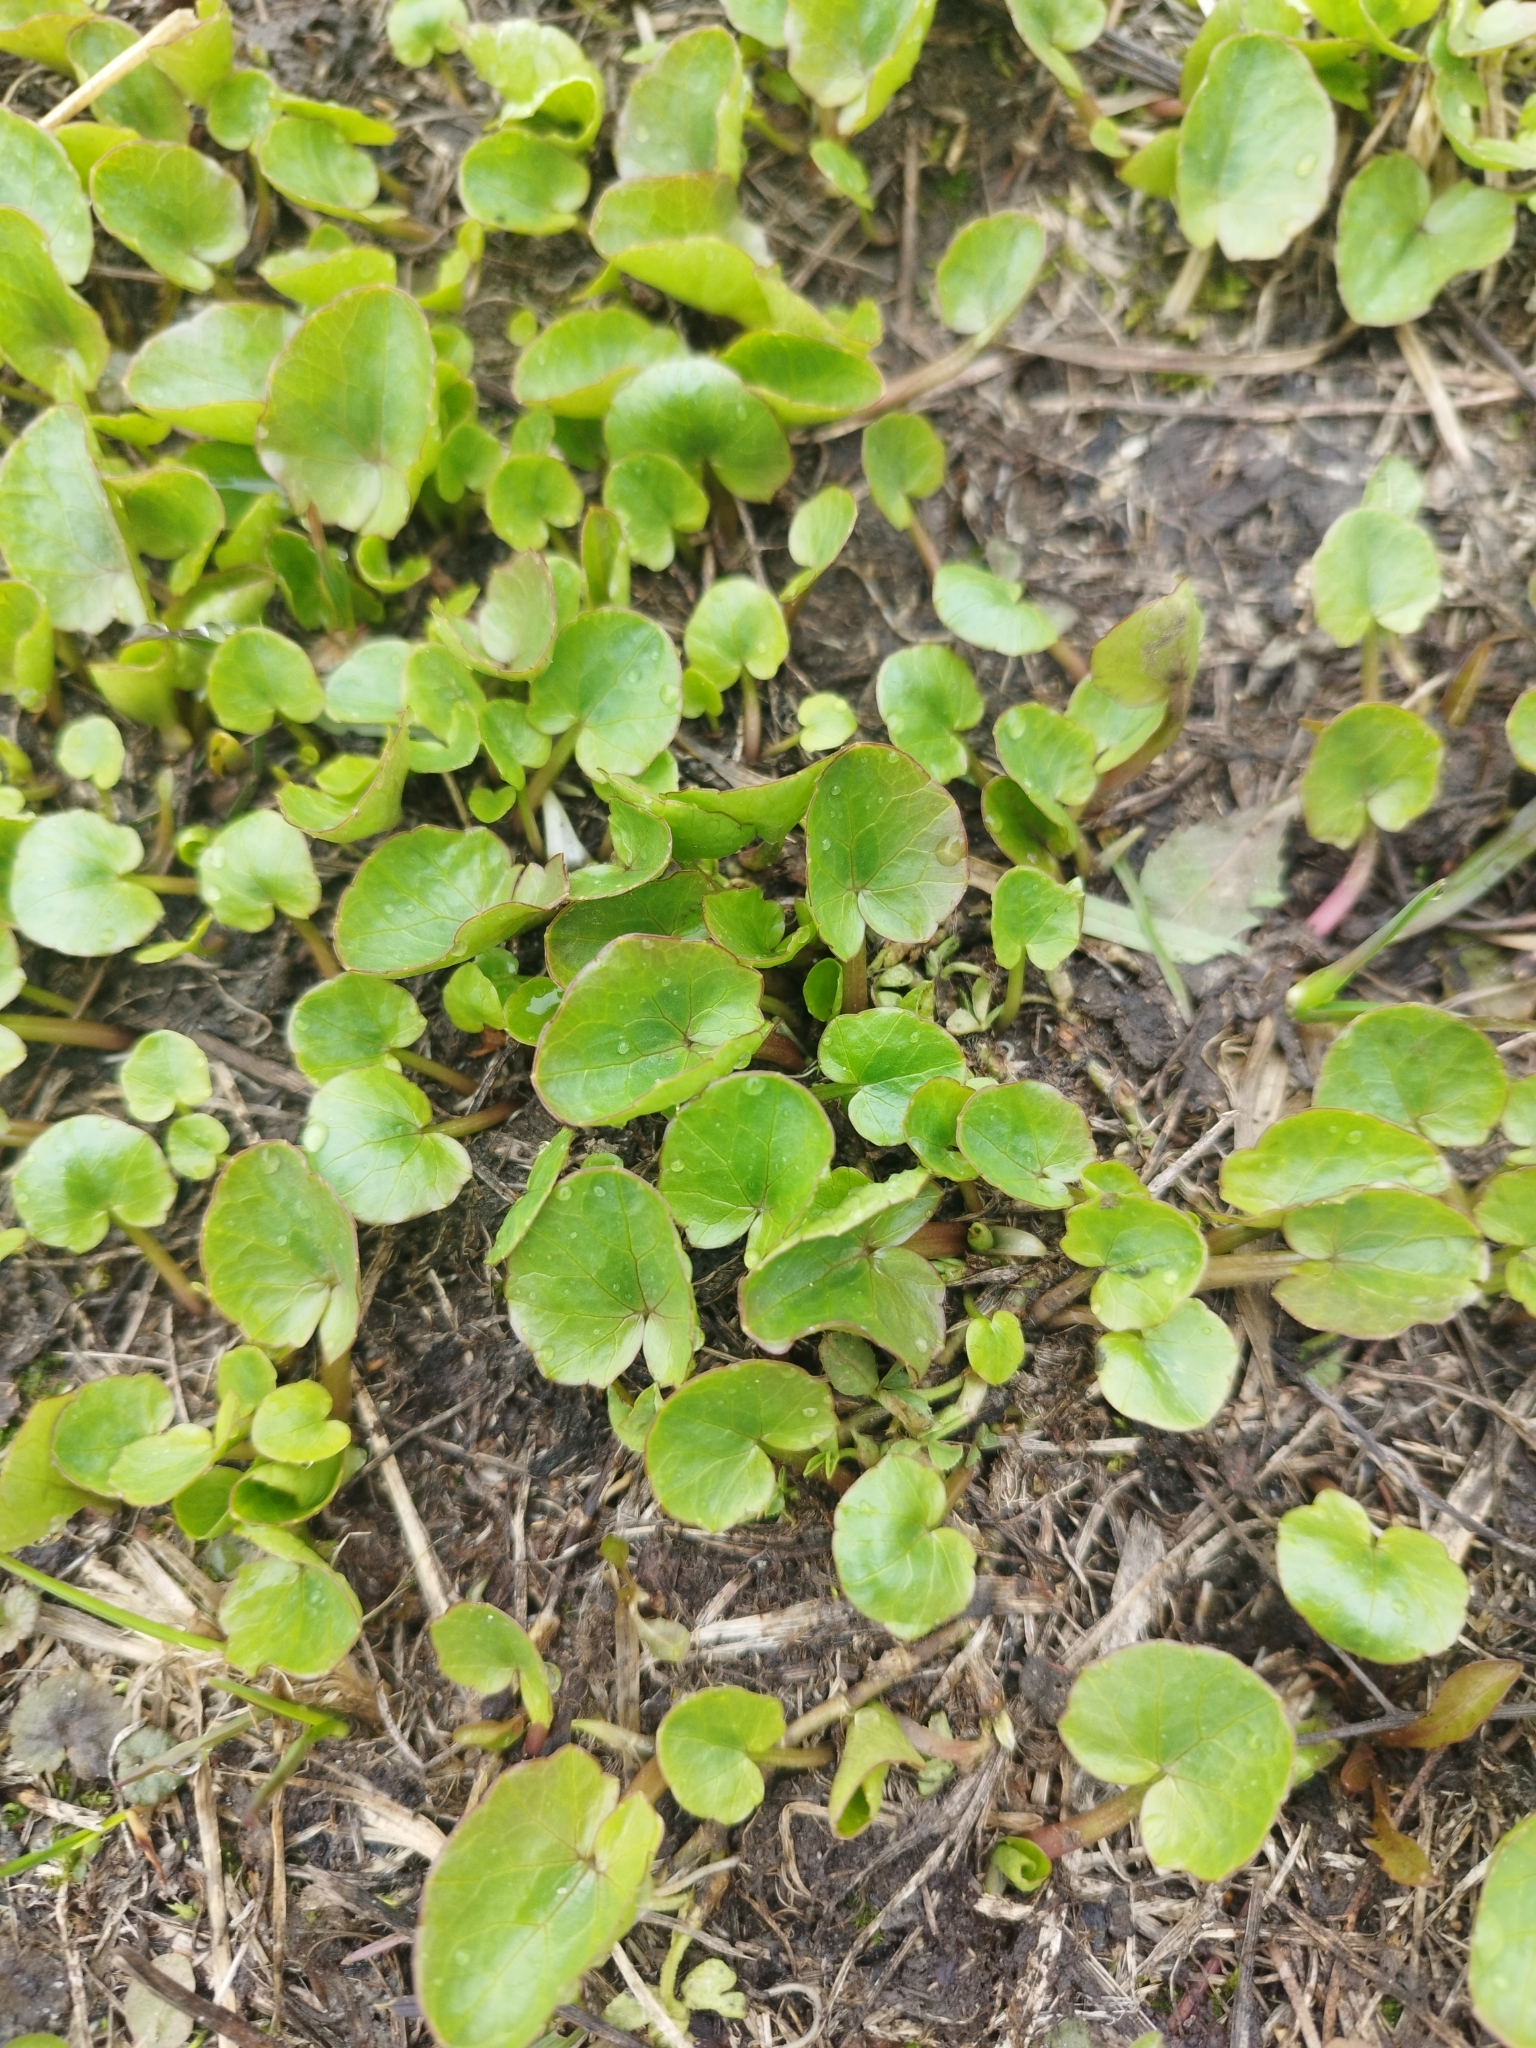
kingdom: Plantae
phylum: Tracheophyta
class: Magnoliopsida
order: Ranunculales
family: Ranunculaceae
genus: Ficaria
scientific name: Ficaria verna
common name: Lesser celandine
